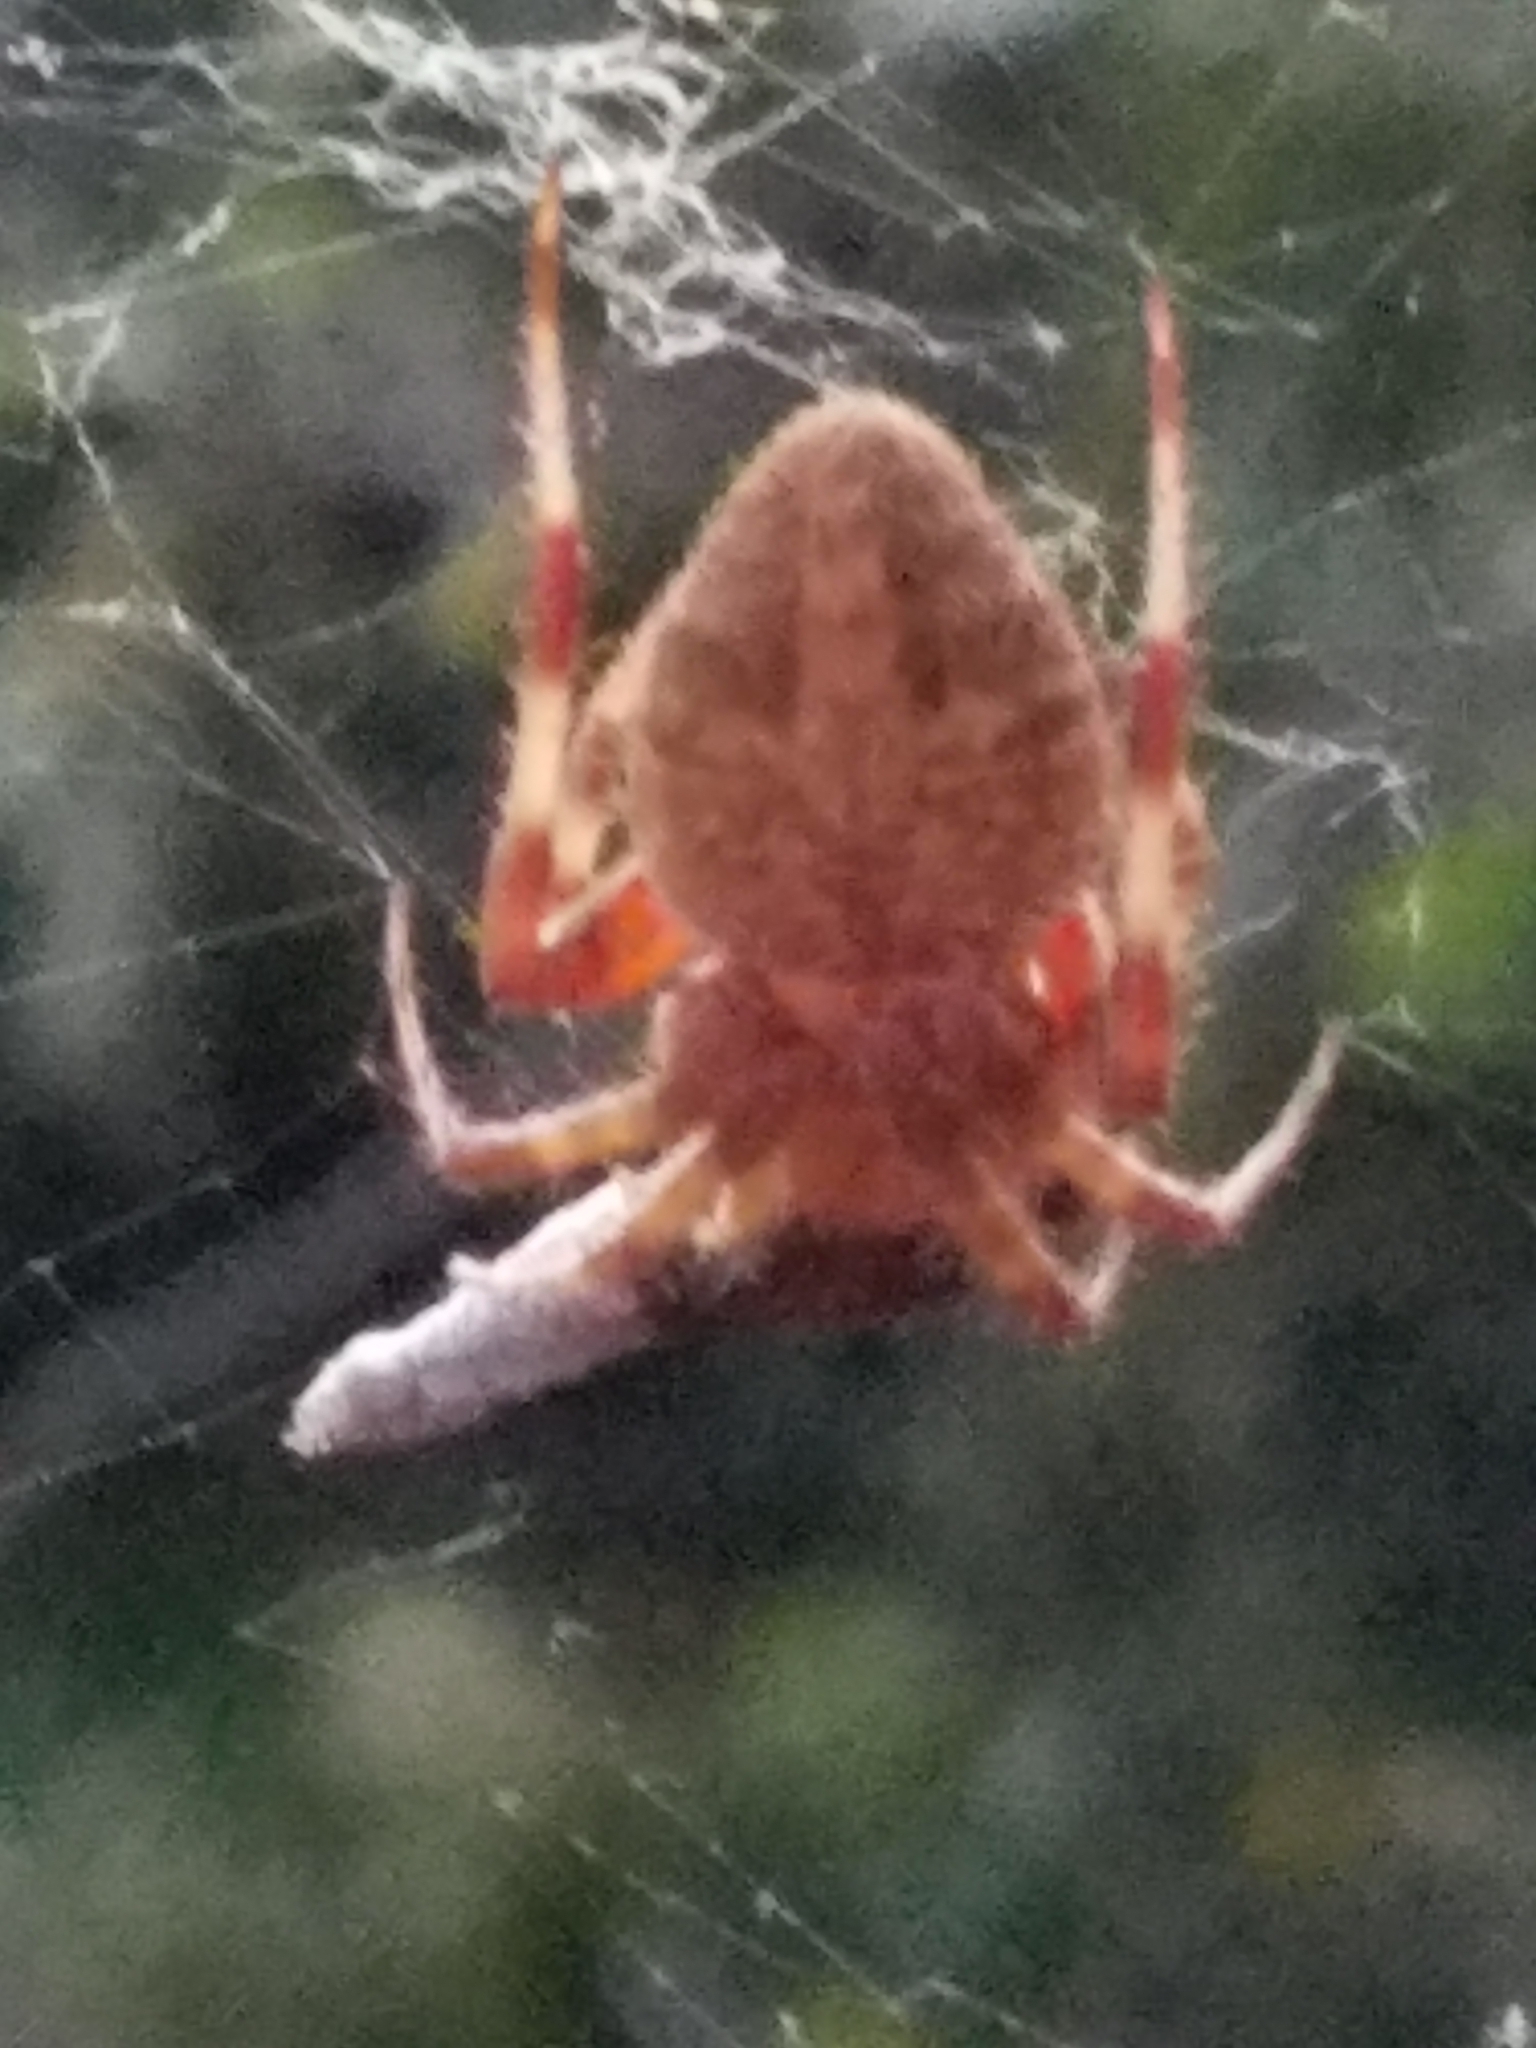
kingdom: Animalia
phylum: Arthropoda
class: Arachnida
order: Araneae
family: Araneidae
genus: Neoscona
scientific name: Neoscona crucifera
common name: Spotted orbweaver
